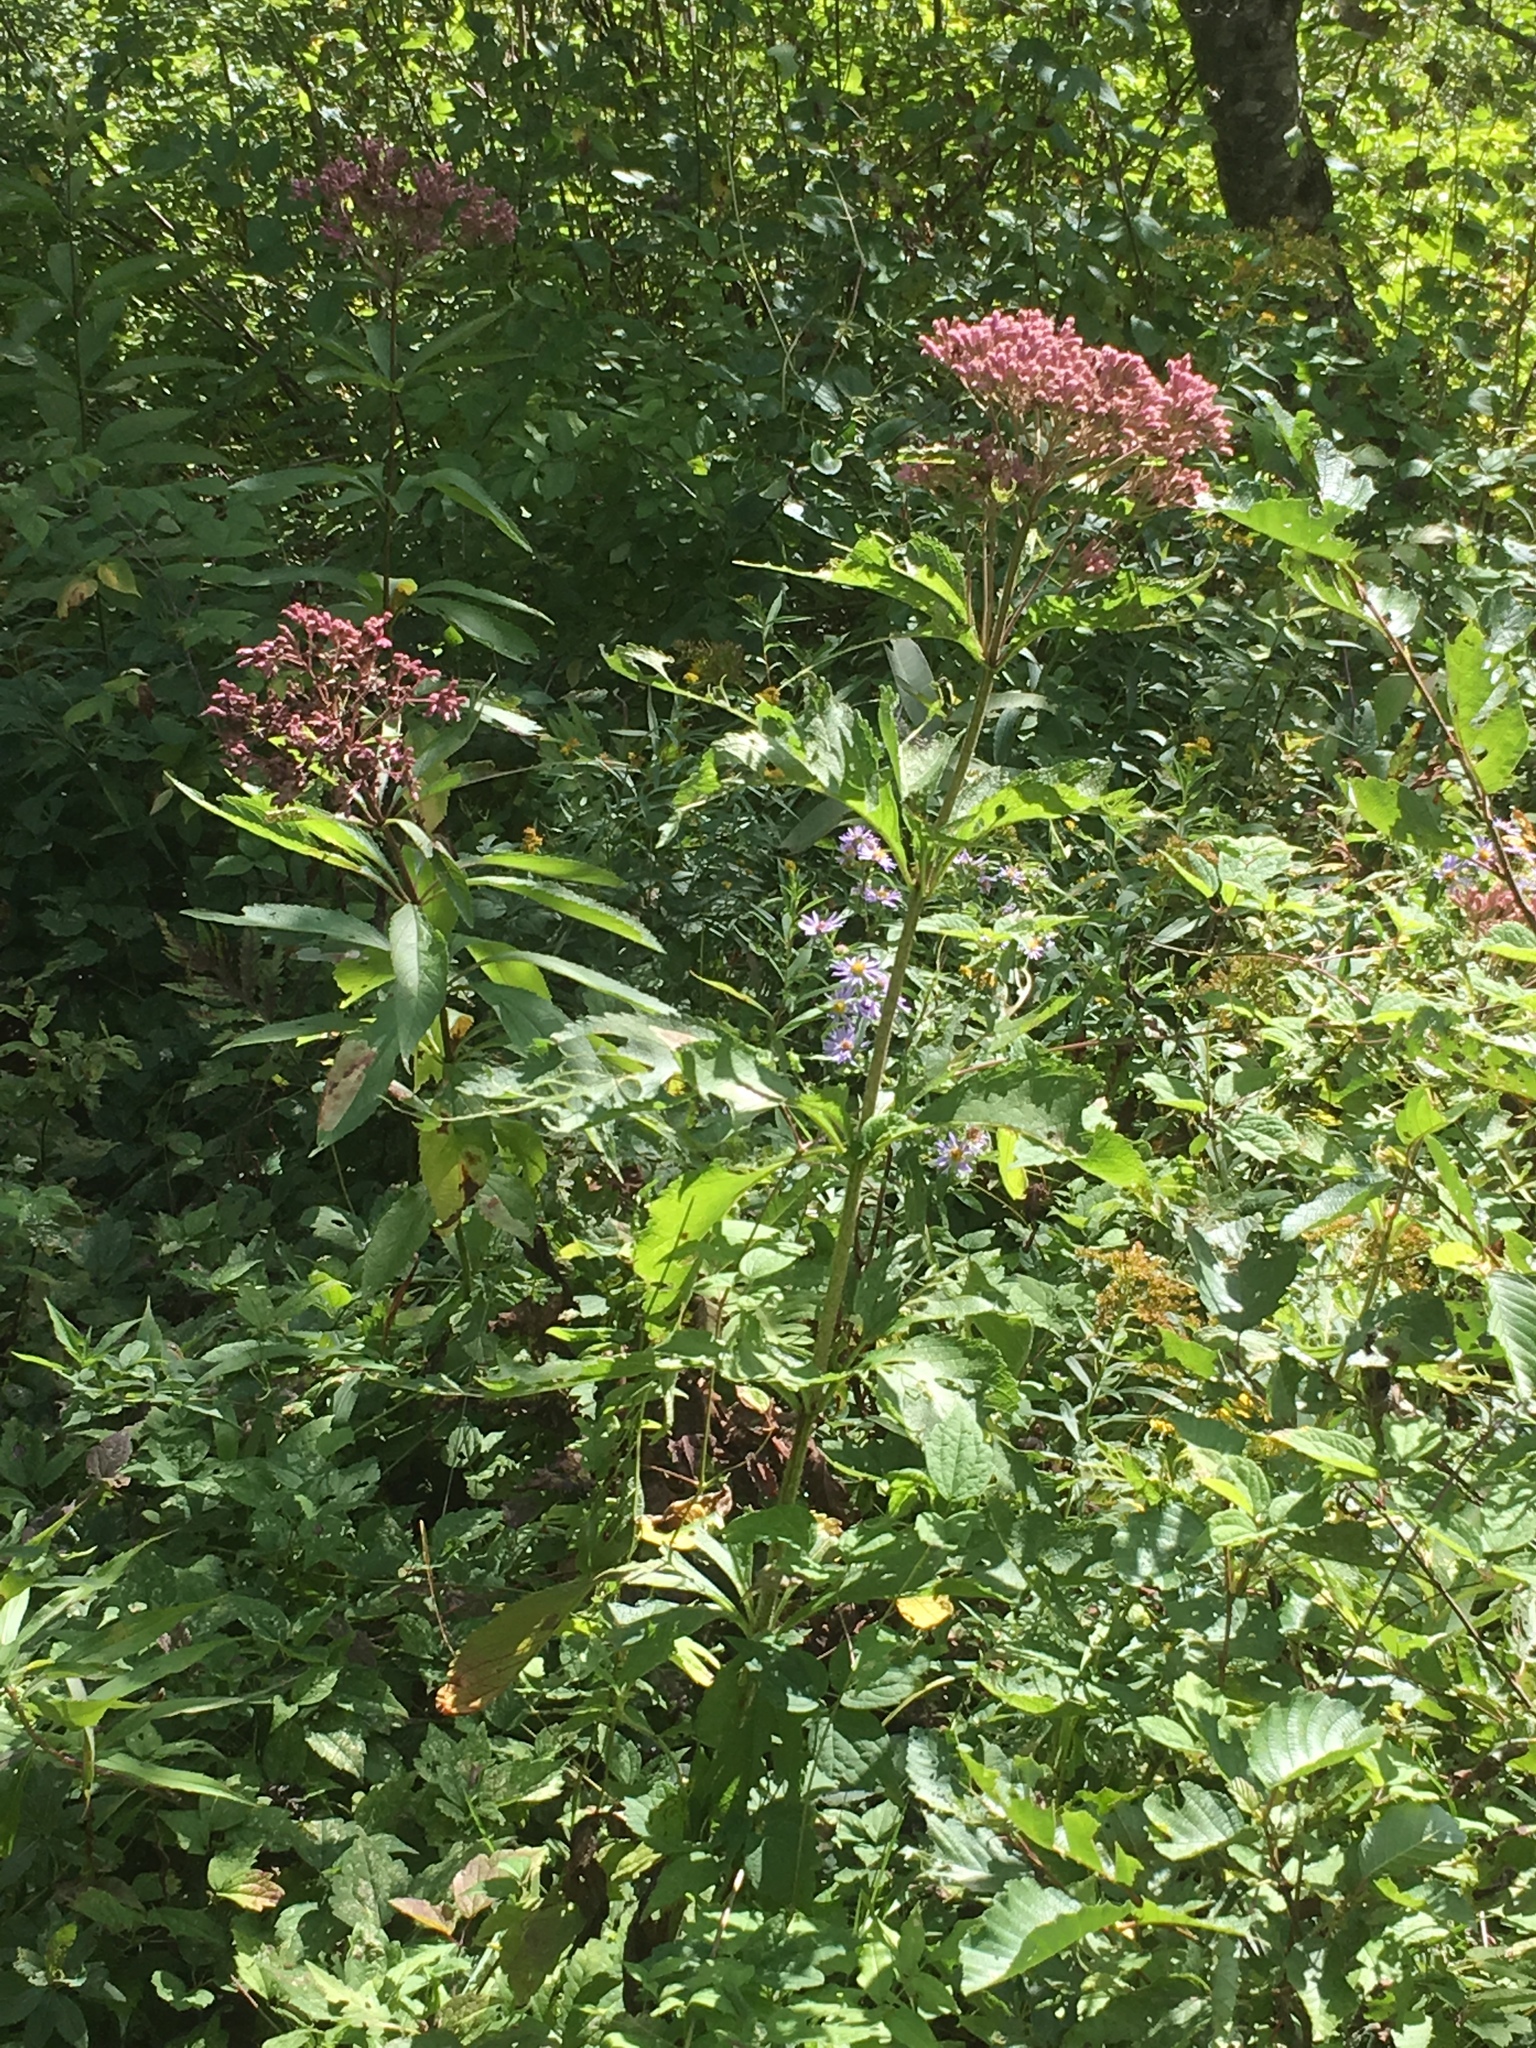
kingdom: Plantae
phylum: Tracheophyta
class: Magnoliopsida
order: Asterales
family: Asteraceae
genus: Eutrochium
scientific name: Eutrochium maculatum
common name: Spotted joe pye weed
